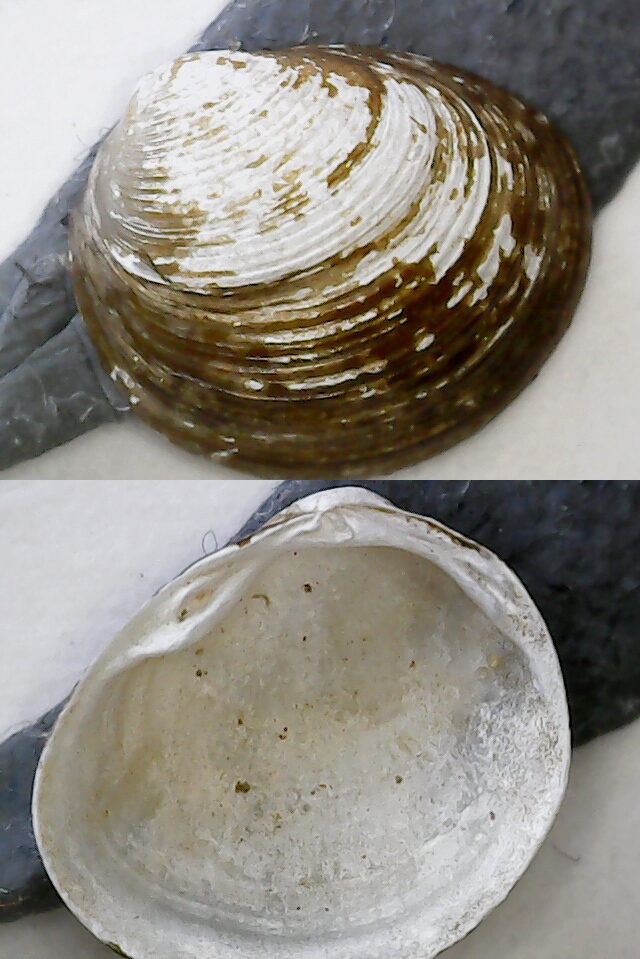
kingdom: Animalia
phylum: Mollusca
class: Bivalvia
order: Sphaeriida
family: Sphaeriidae
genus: Pisidium
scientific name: Pisidium amnicum
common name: Greater european peaclam
